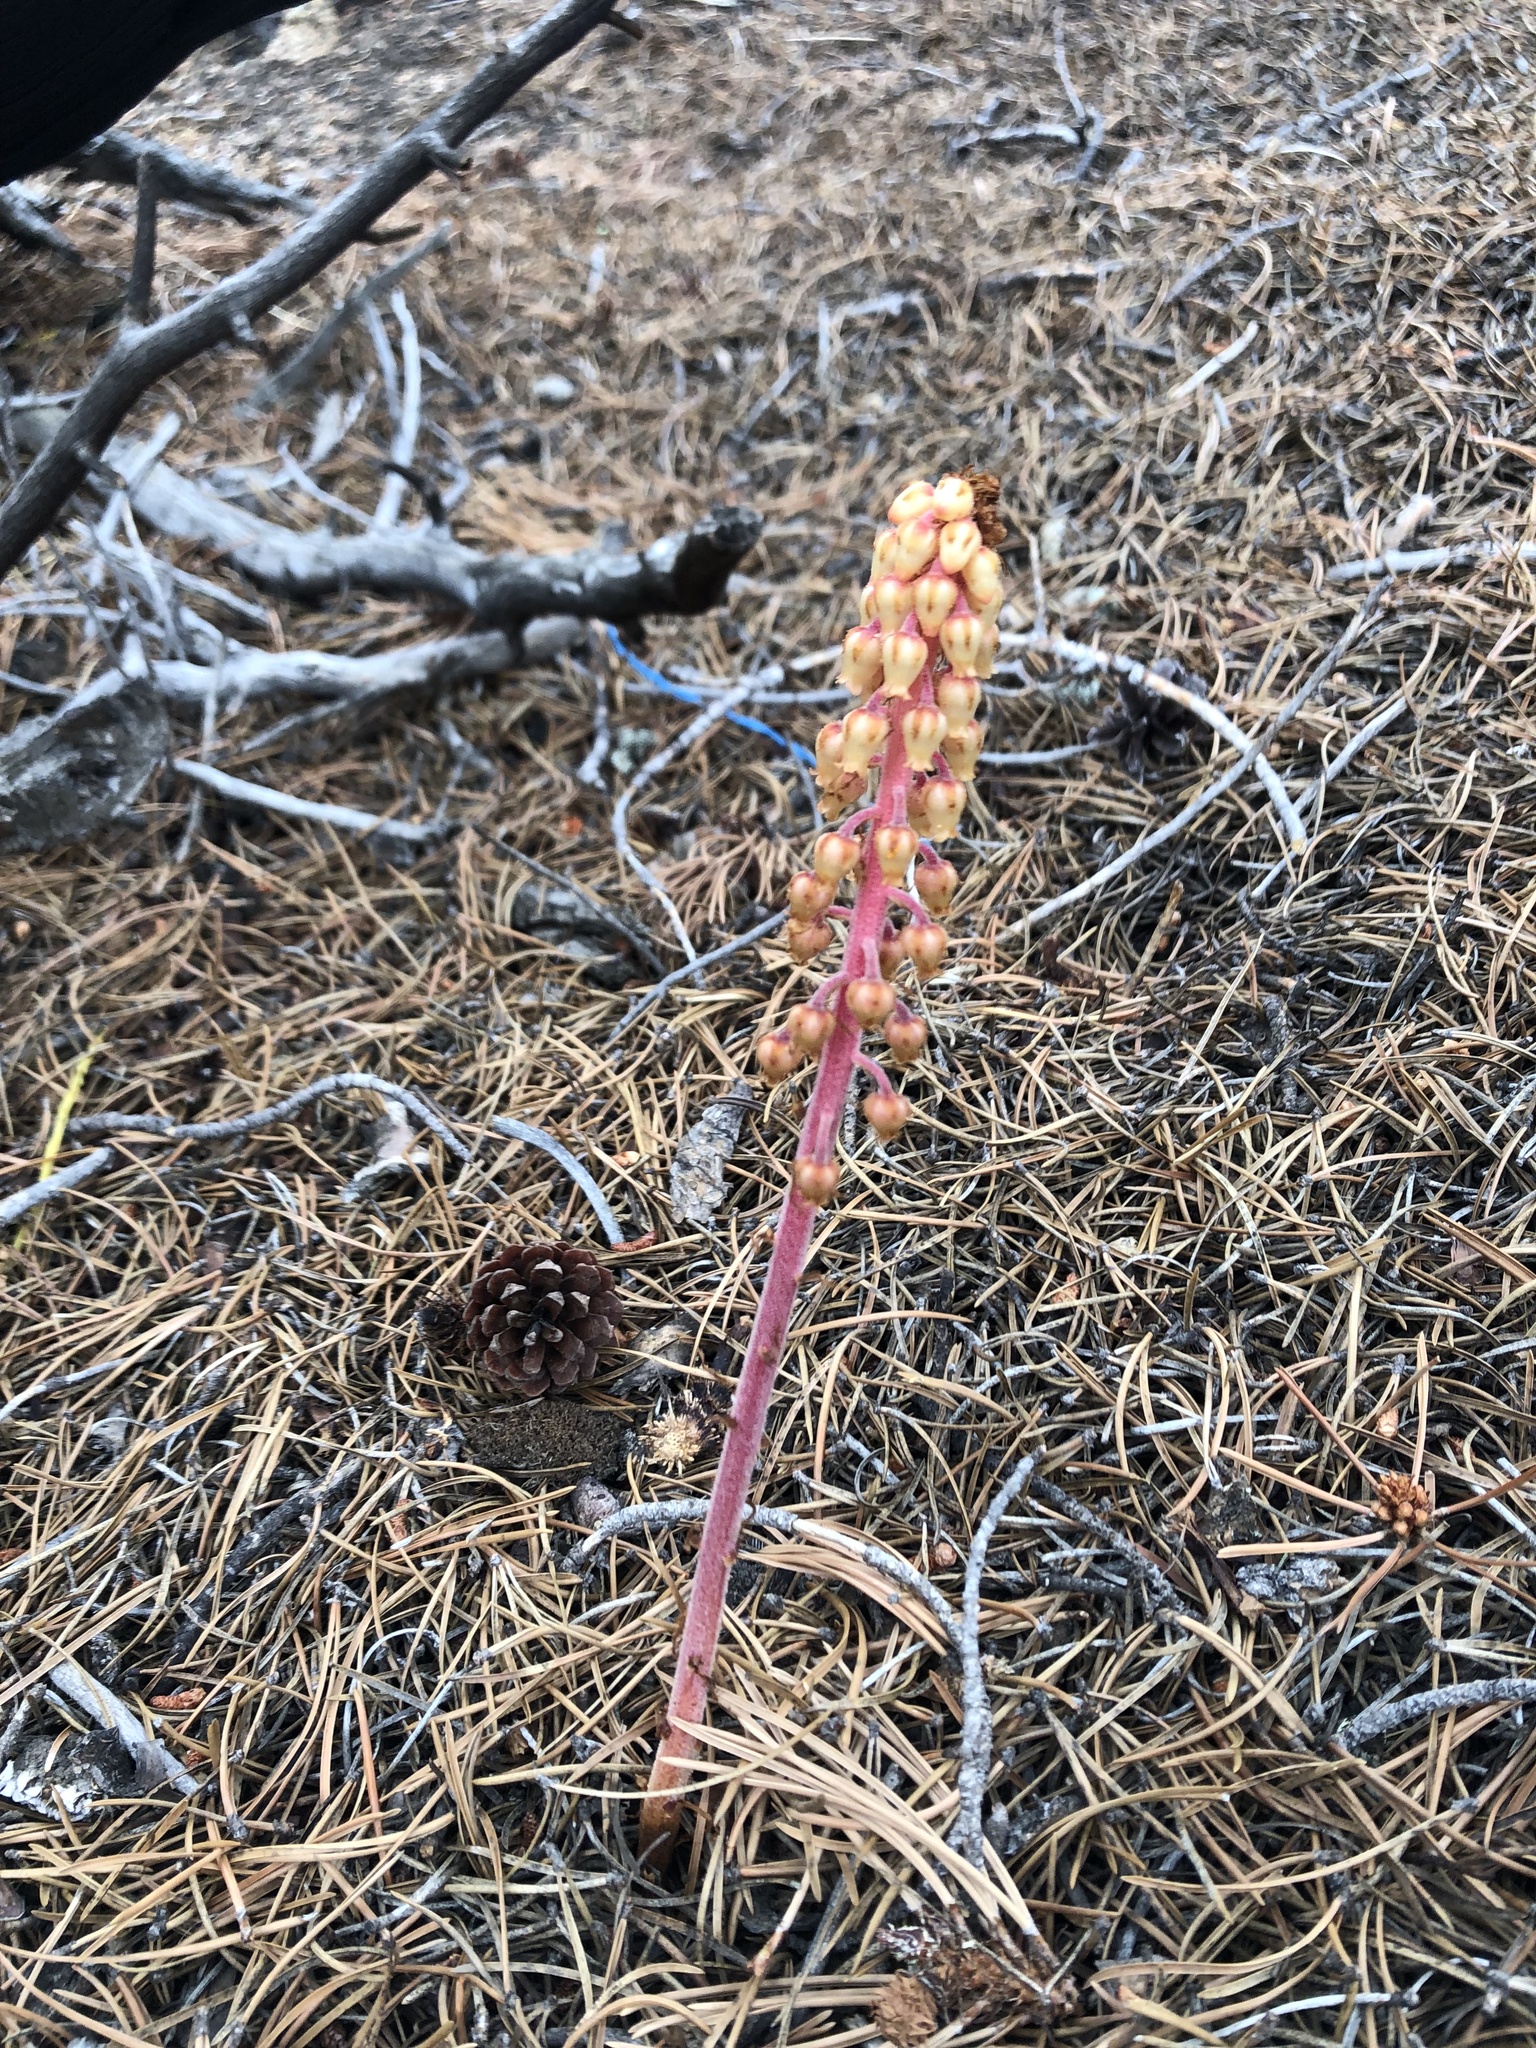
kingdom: Plantae
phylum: Tracheophyta
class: Magnoliopsida
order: Ericales
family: Ericaceae
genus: Pterospora
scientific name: Pterospora andromedea
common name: Giant bird's-nest
